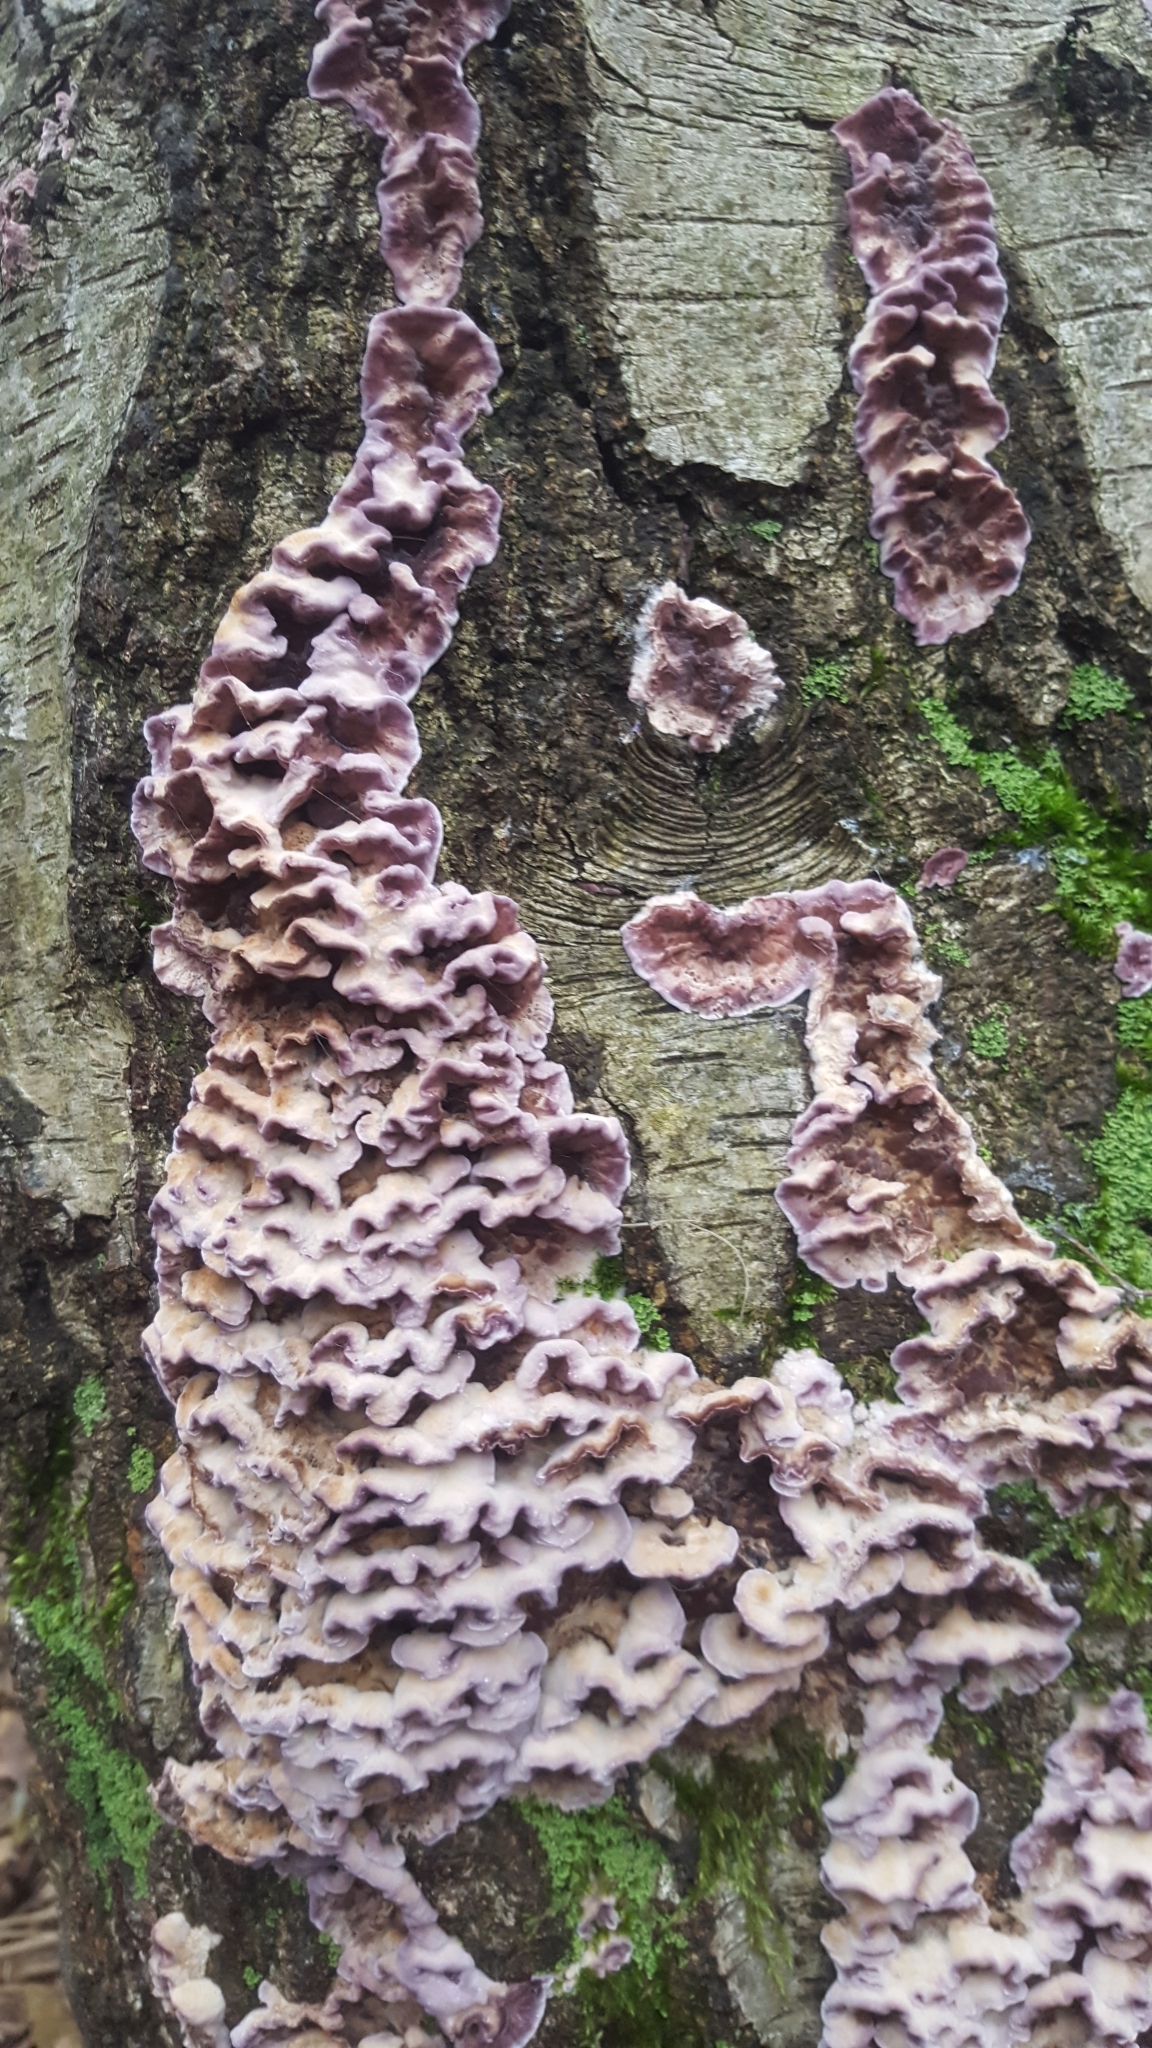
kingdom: Fungi
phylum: Basidiomycota
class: Agaricomycetes
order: Agaricales
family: Cyphellaceae
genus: Chondrostereum
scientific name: Chondrostereum purpureum
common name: Silver leaf disease
